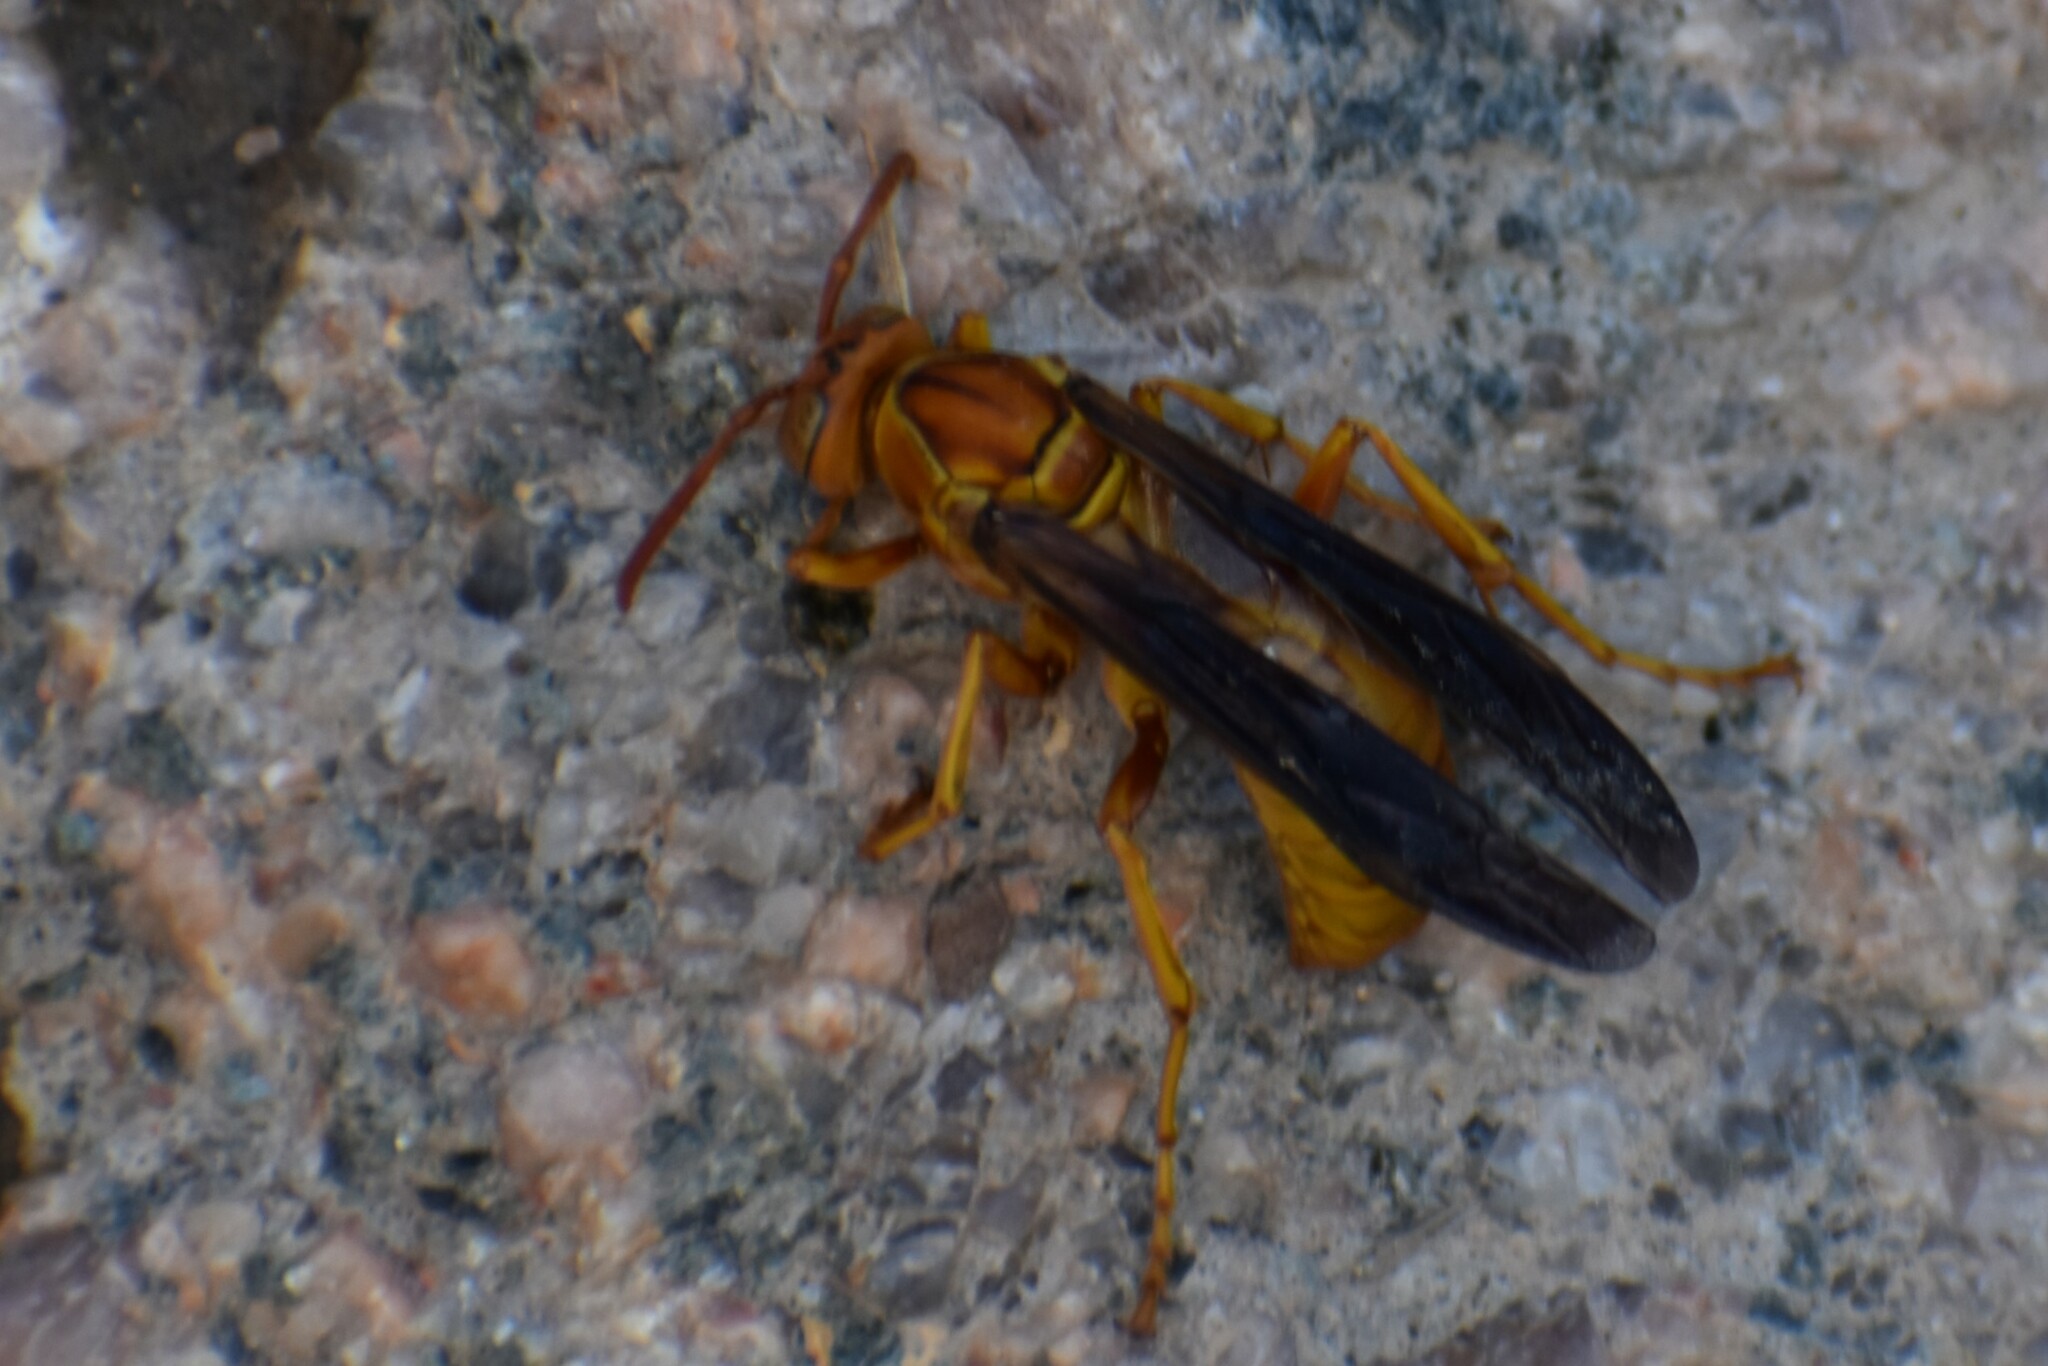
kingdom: Animalia
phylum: Arthropoda
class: Insecta
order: Hymenoptera
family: Eumenidae
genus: Polistes
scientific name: Polistes flavus
